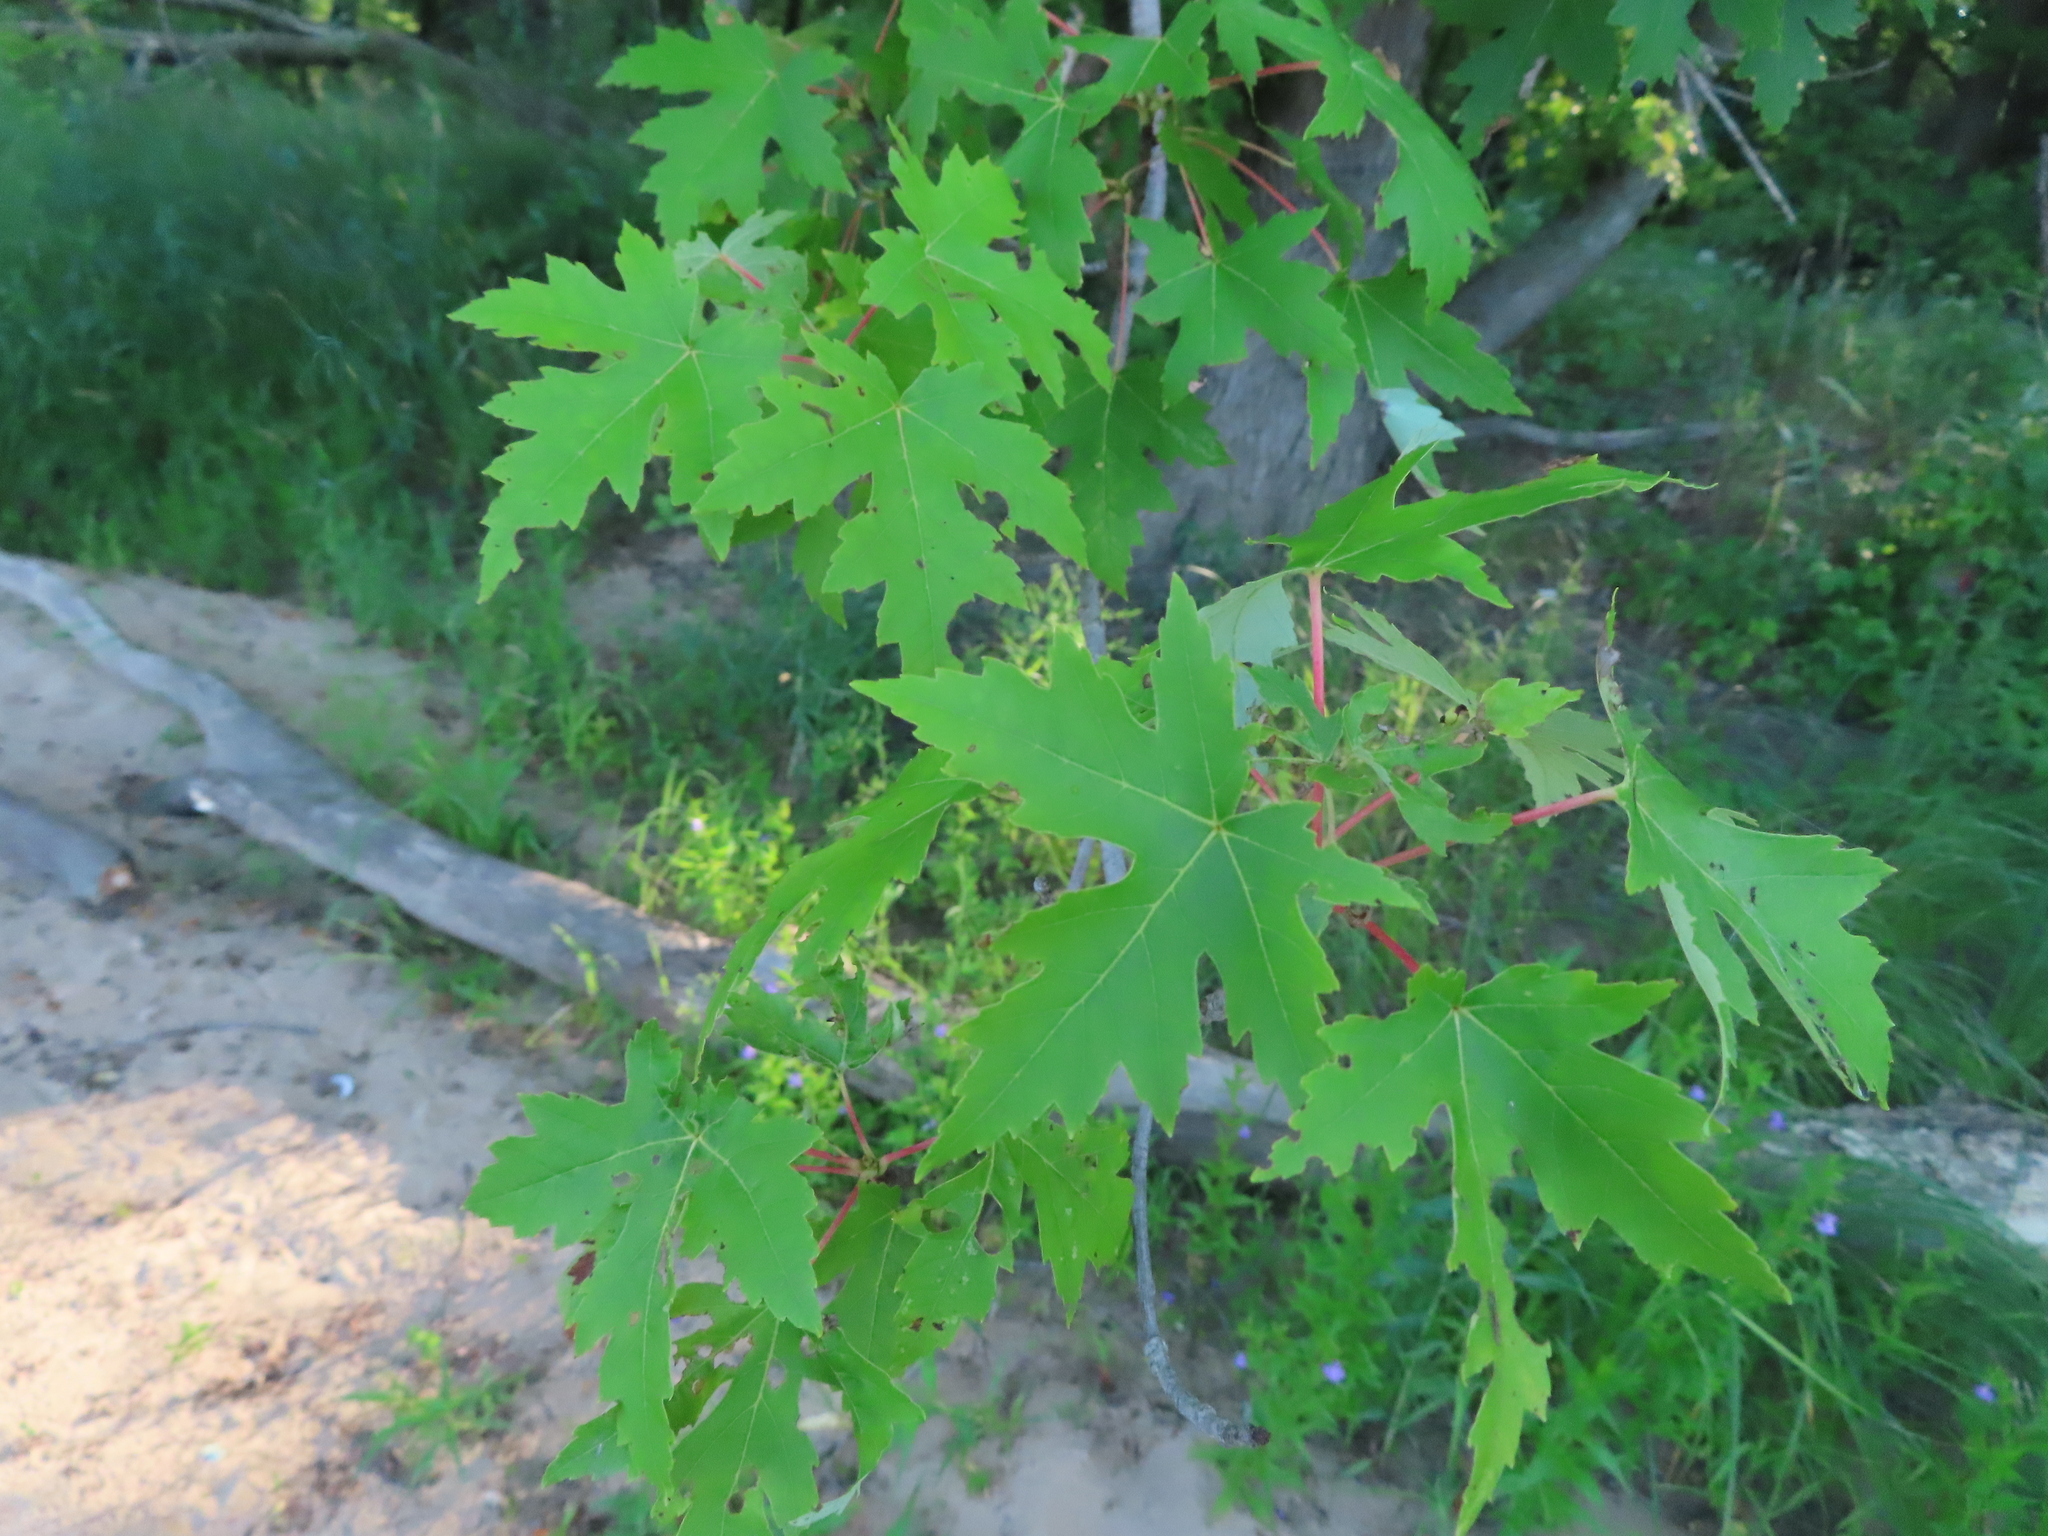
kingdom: Plantae
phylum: Tracheophyta
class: Magnoliopsida
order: Sapindales
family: Sapindaceae
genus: Acer
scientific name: Acer saccharinum
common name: Silver maple
